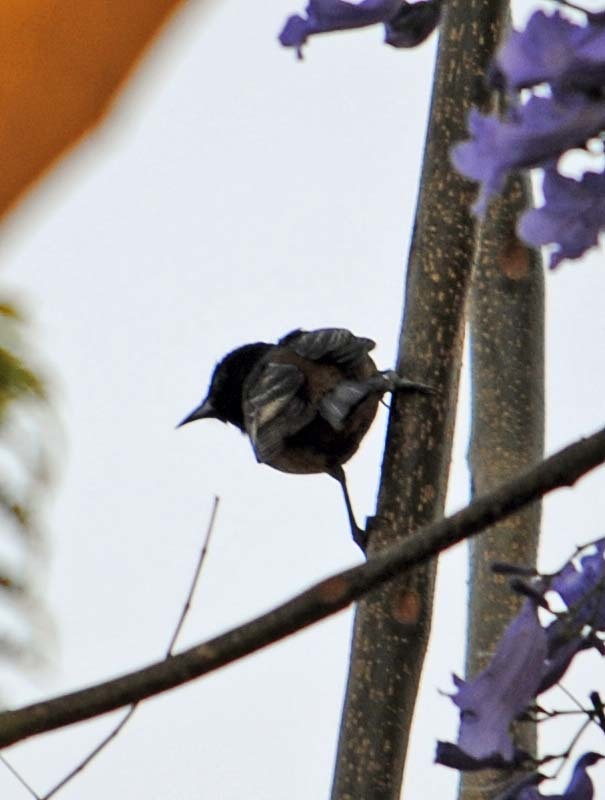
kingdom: Animalia
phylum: Chordata
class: Aves
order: Passeriformes
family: Icteridae
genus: Icterus
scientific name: Icterus spurius
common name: Orchard oriole
